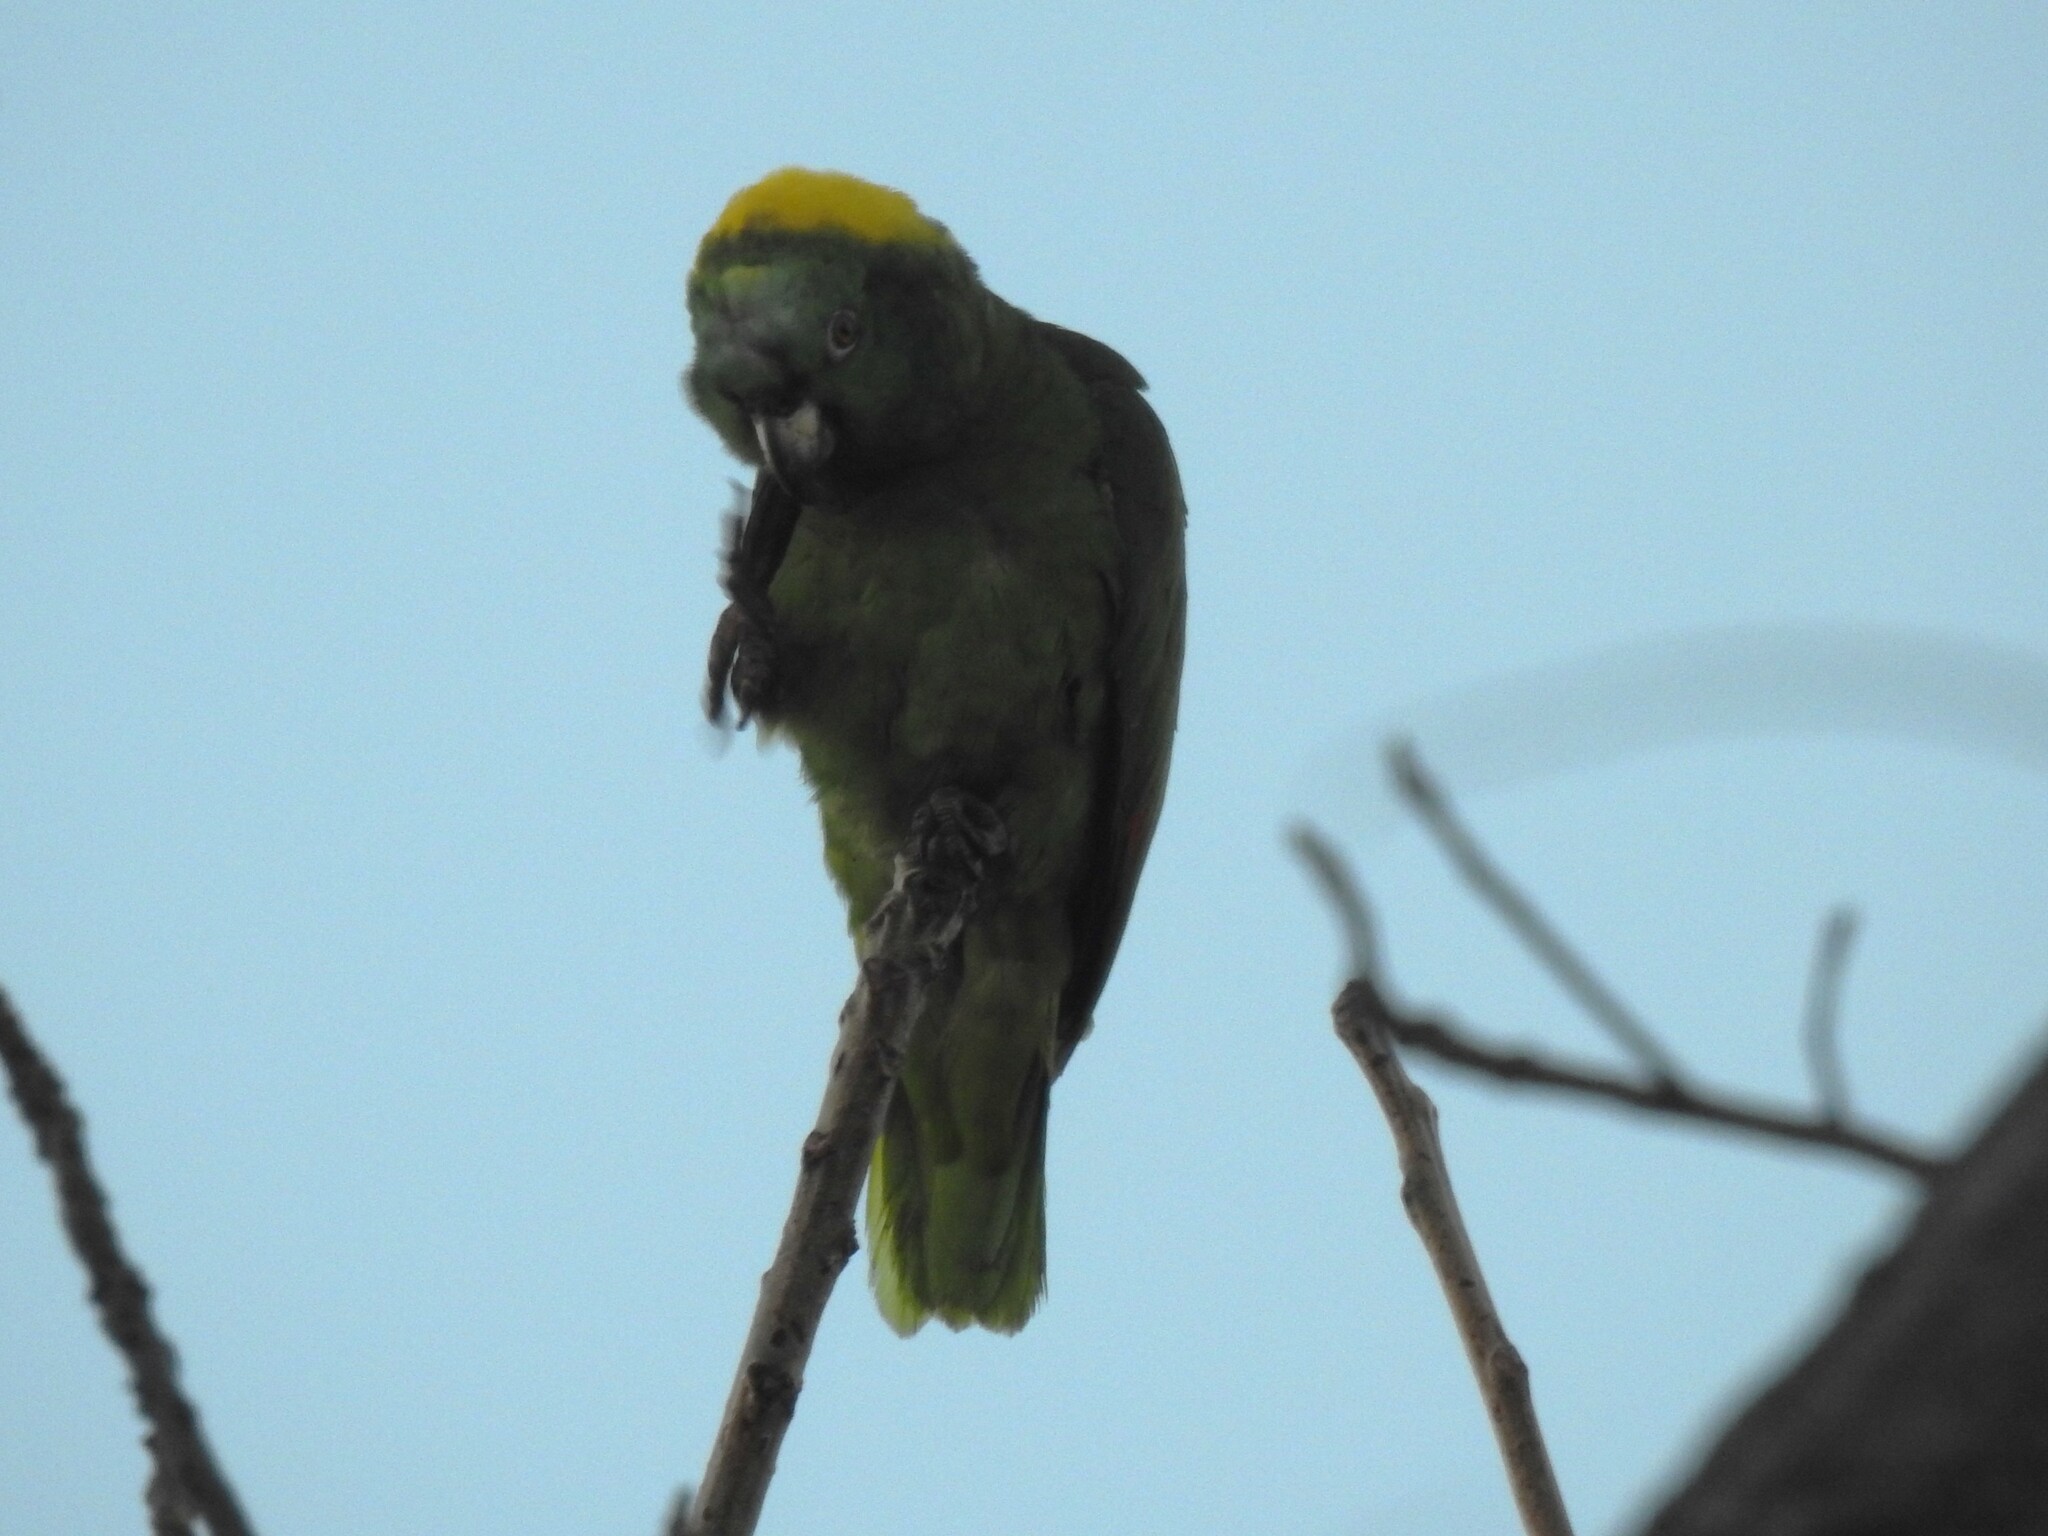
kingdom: Animalia
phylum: Chordata
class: Aves
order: Psittaciformes
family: Psittacidae
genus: Amazona
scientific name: Amazona auropalliata
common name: Yellow-naped amazon
